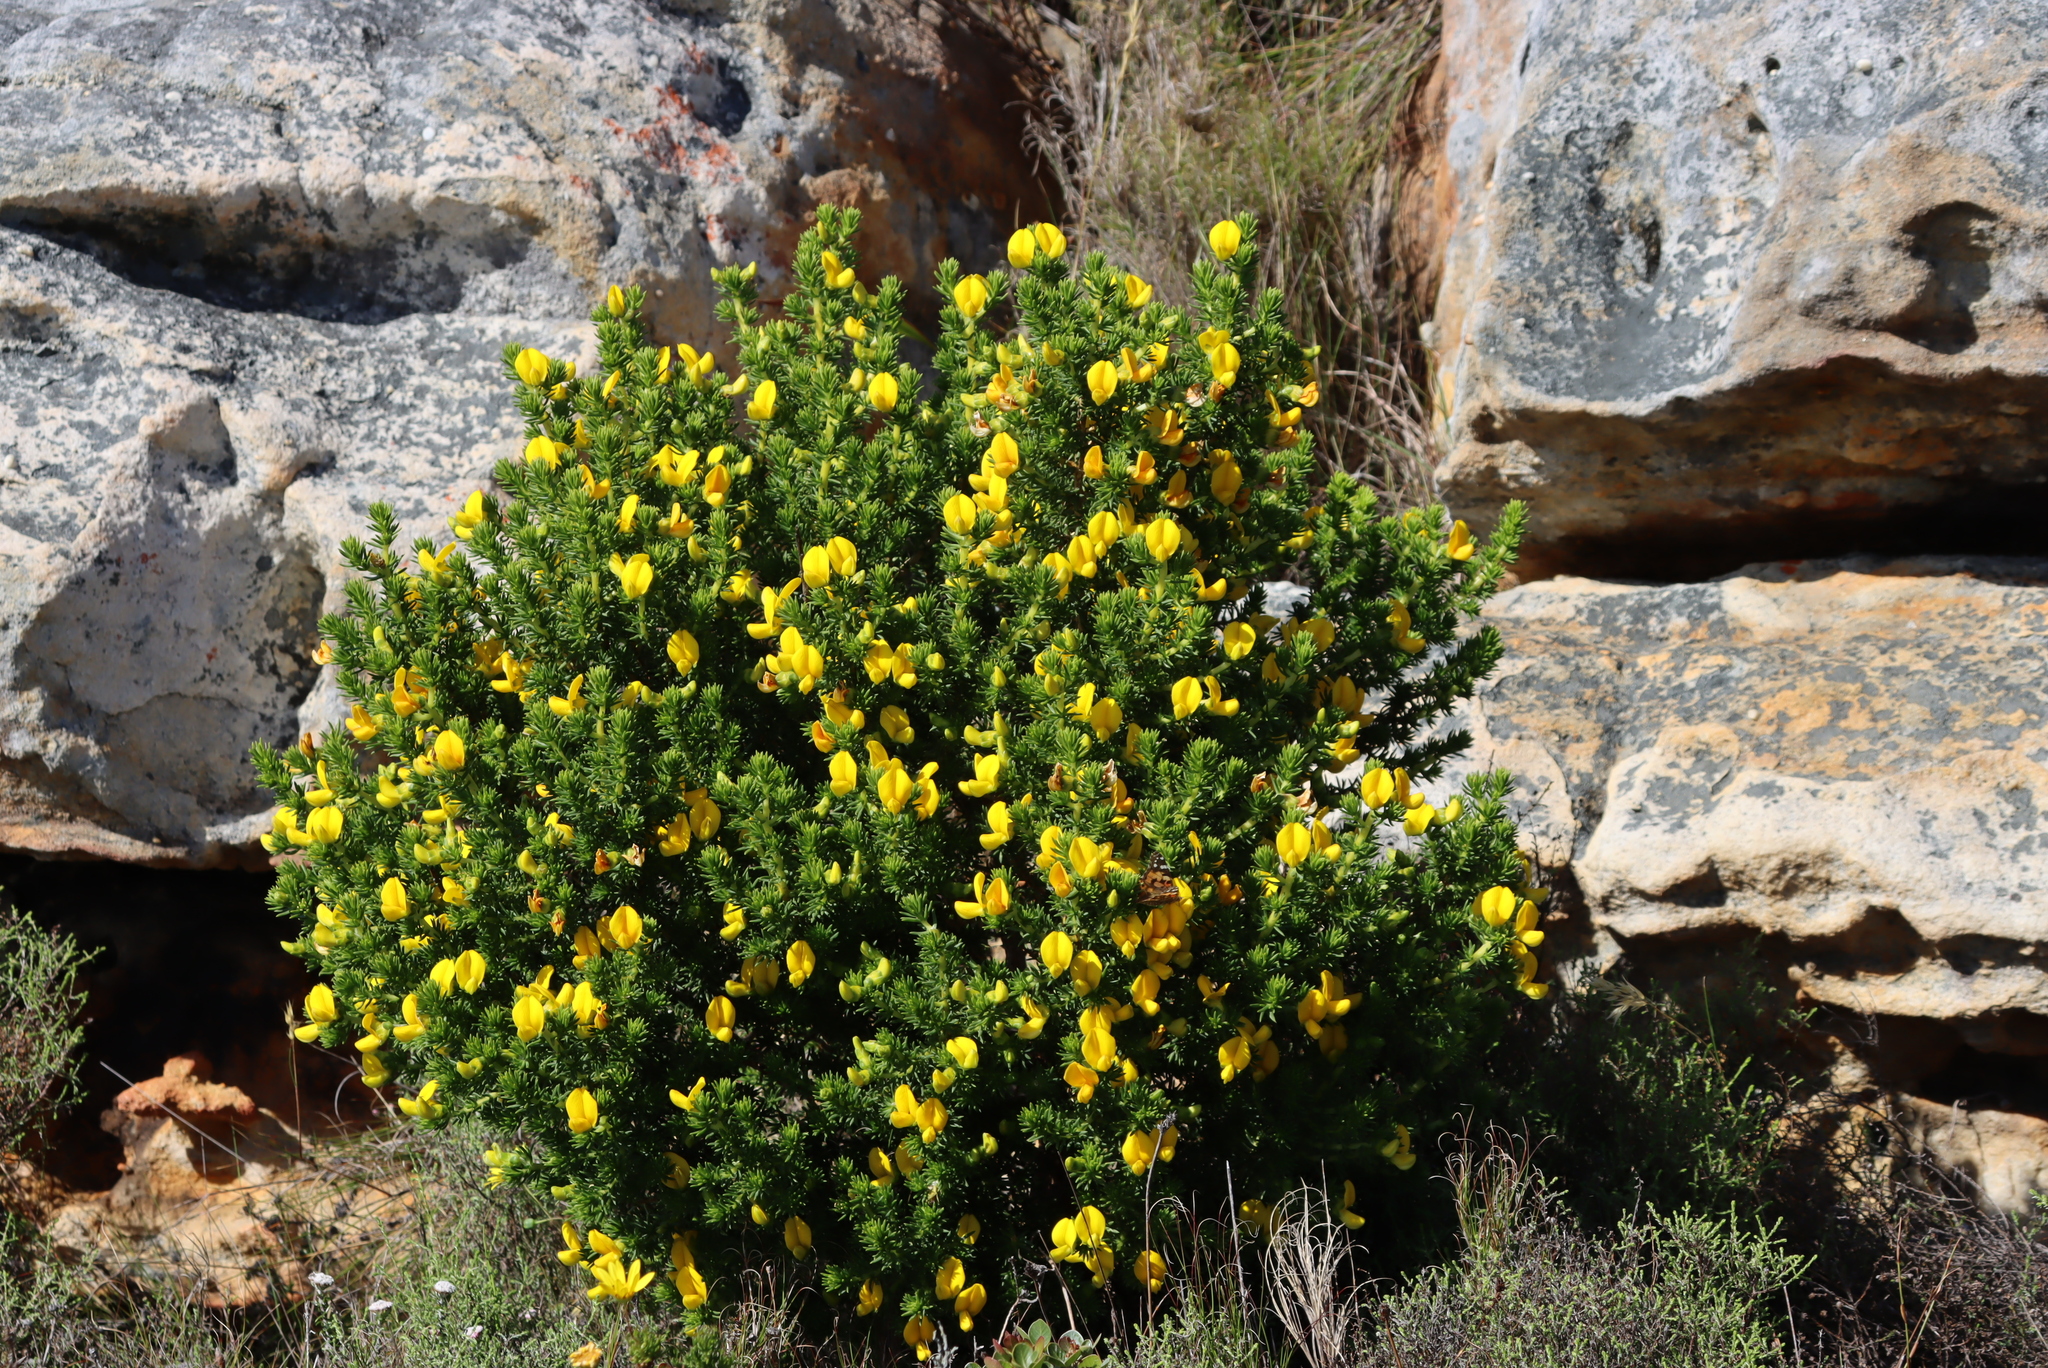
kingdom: Plantae
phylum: Tracheophyta
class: Magnoliopsida
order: Fabales
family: Fabaceae
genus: Aspalathus
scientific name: Aspalathus capensis
